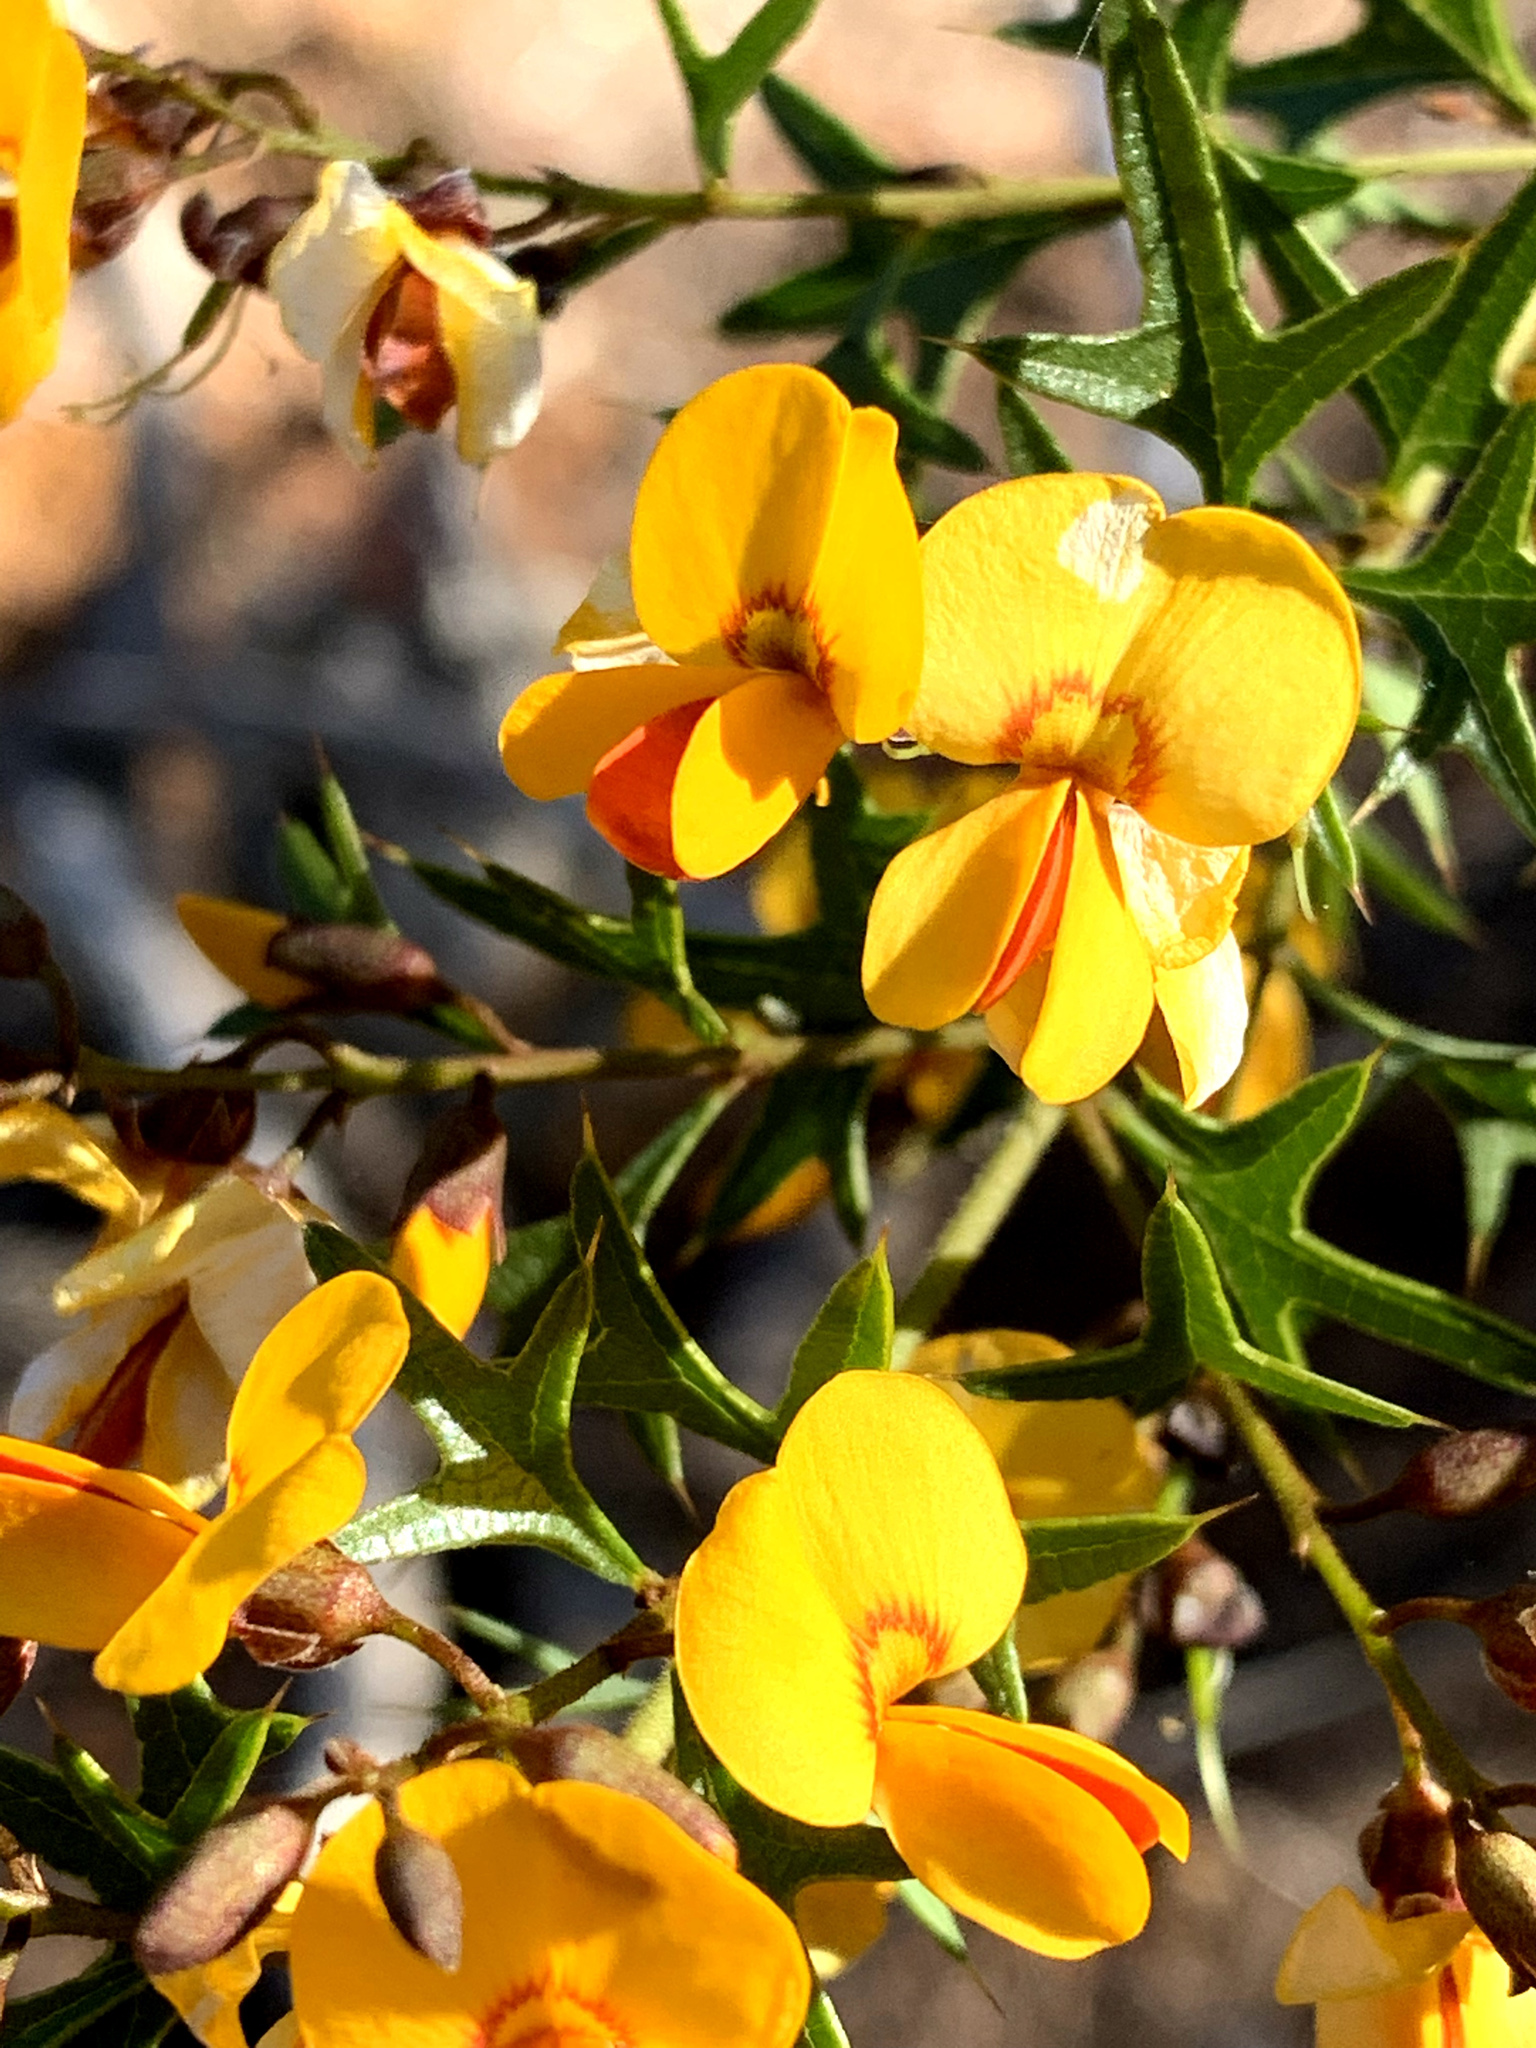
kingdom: Plantae
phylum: Tracheophyta
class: Magnoliopsida
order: Fabales
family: Fabaceae
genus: Podolobium
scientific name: Podolobium ilicifolium
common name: Native holly
